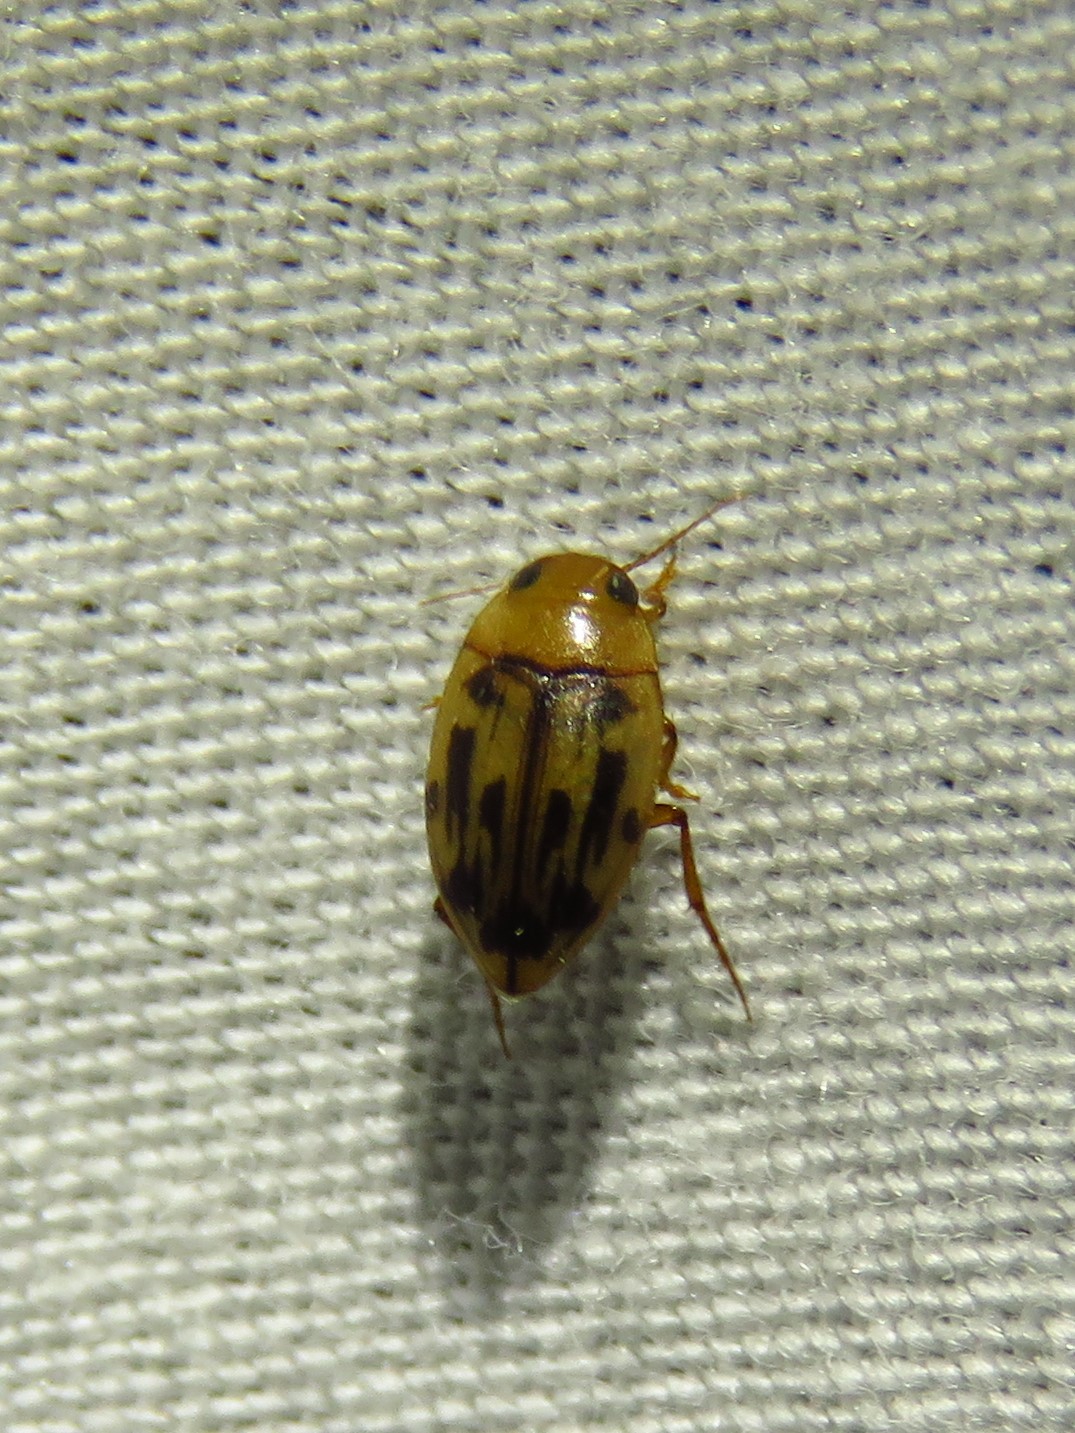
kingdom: Animalia
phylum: Arthropoda
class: Insecta
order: Coleoptera
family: Dytiscidae
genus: Neoporus
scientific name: Neoporus dimidiatus
